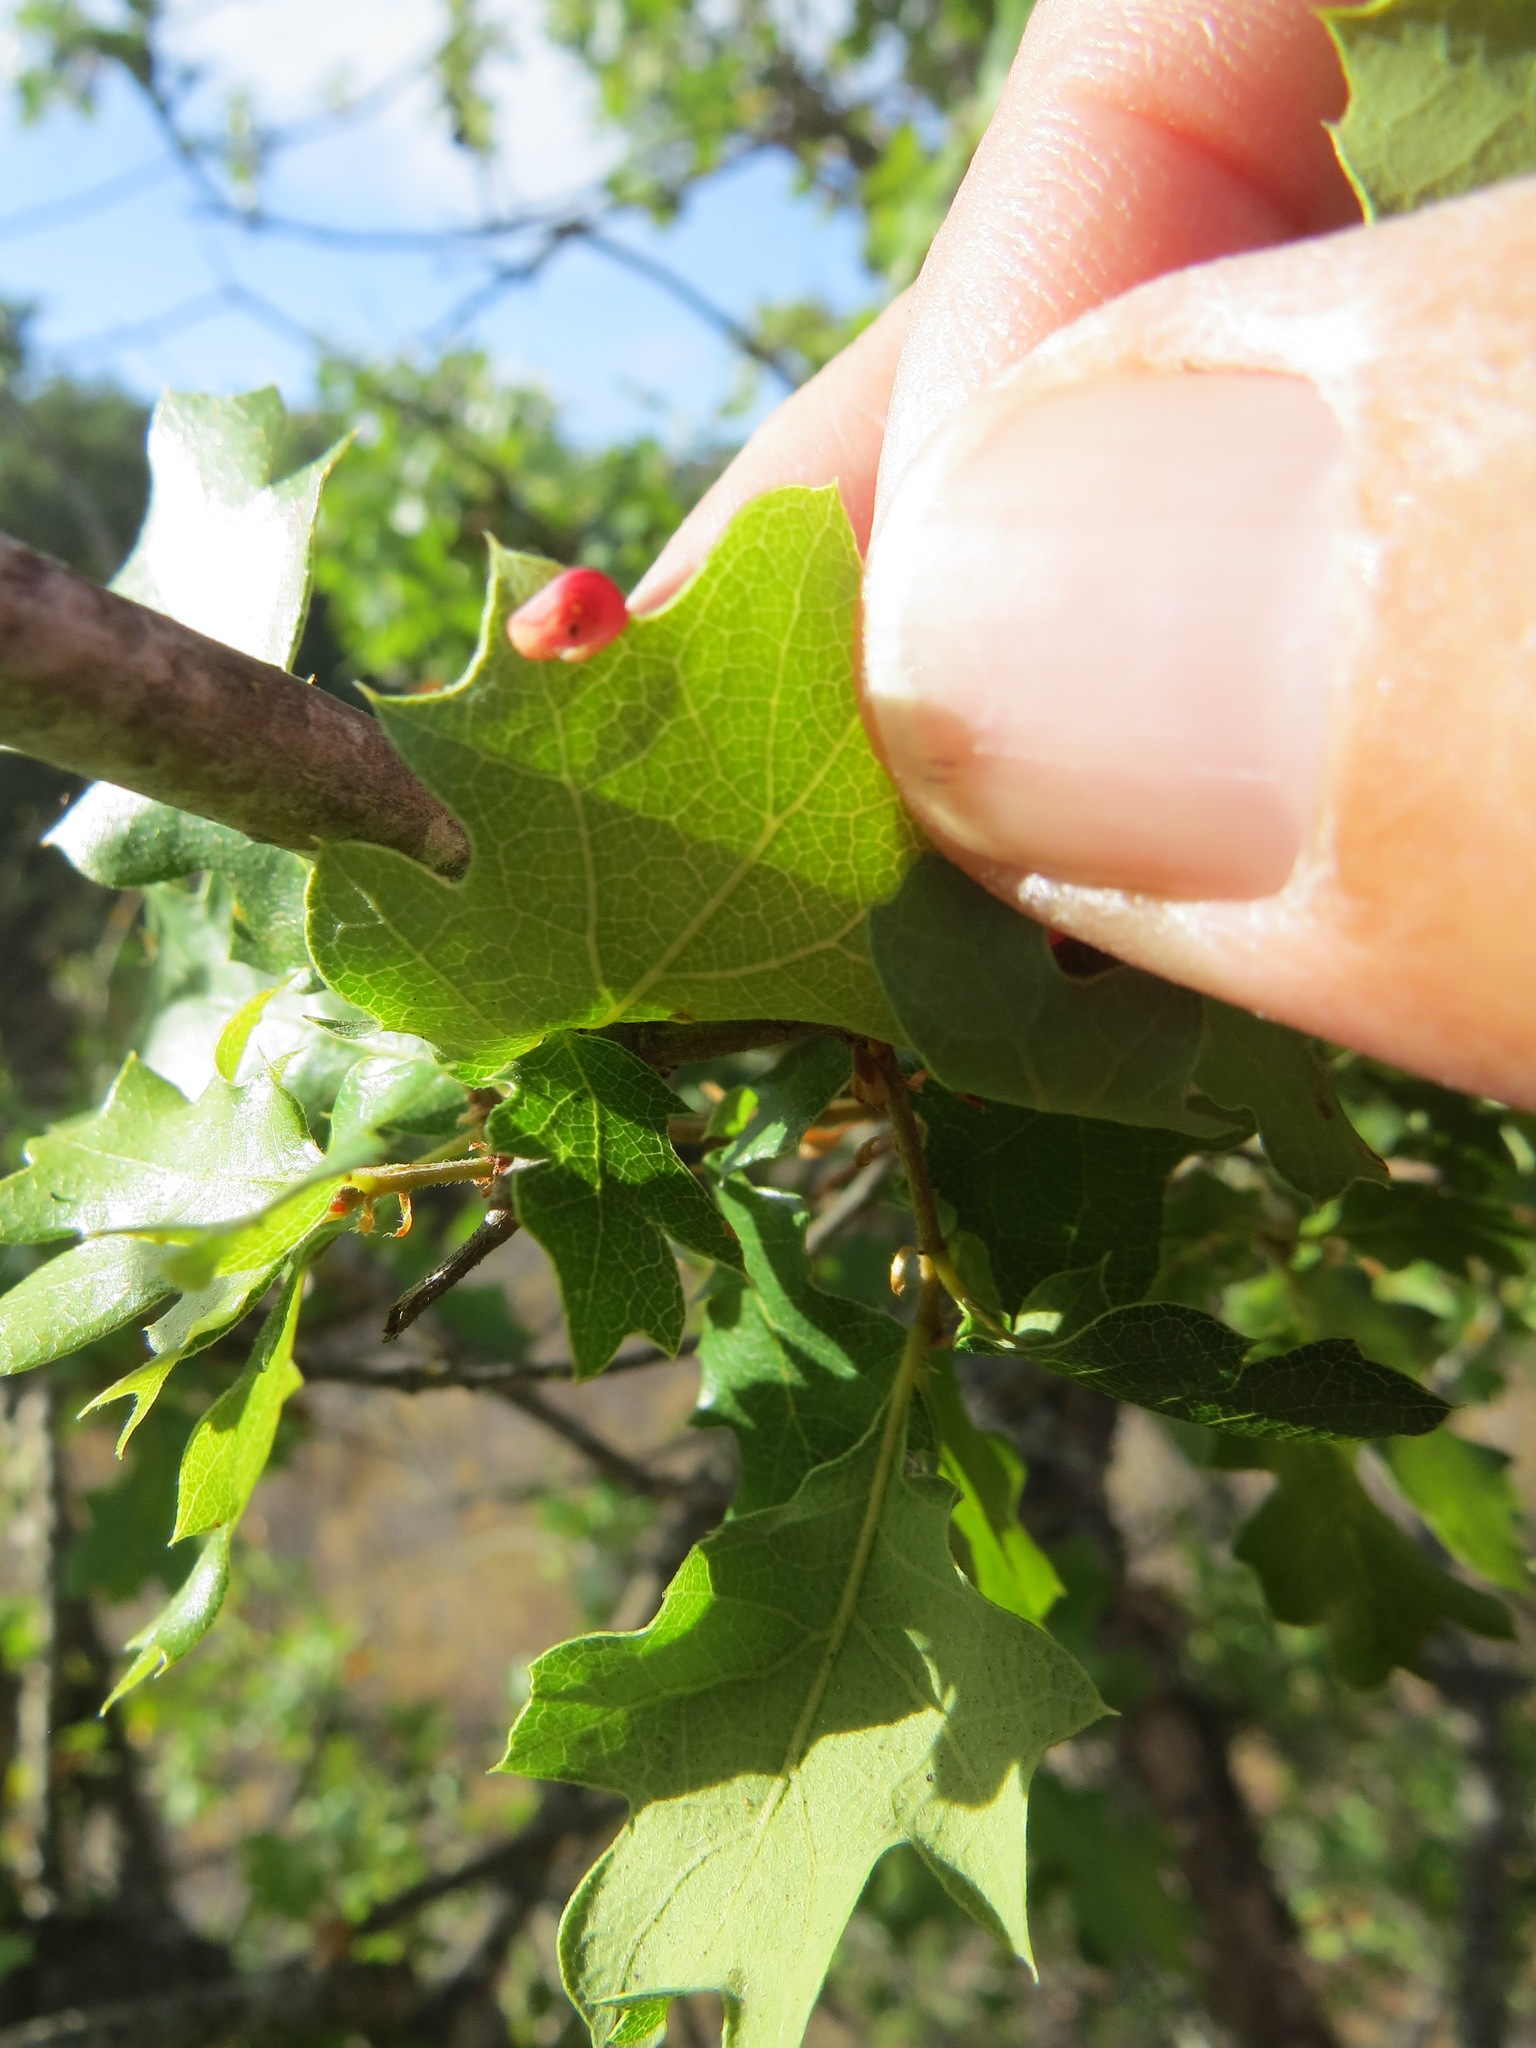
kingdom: Animalia
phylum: Arthropoda
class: Insecta
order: Hymenoptera
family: Cynipidae
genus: Andricus
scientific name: Andricus
